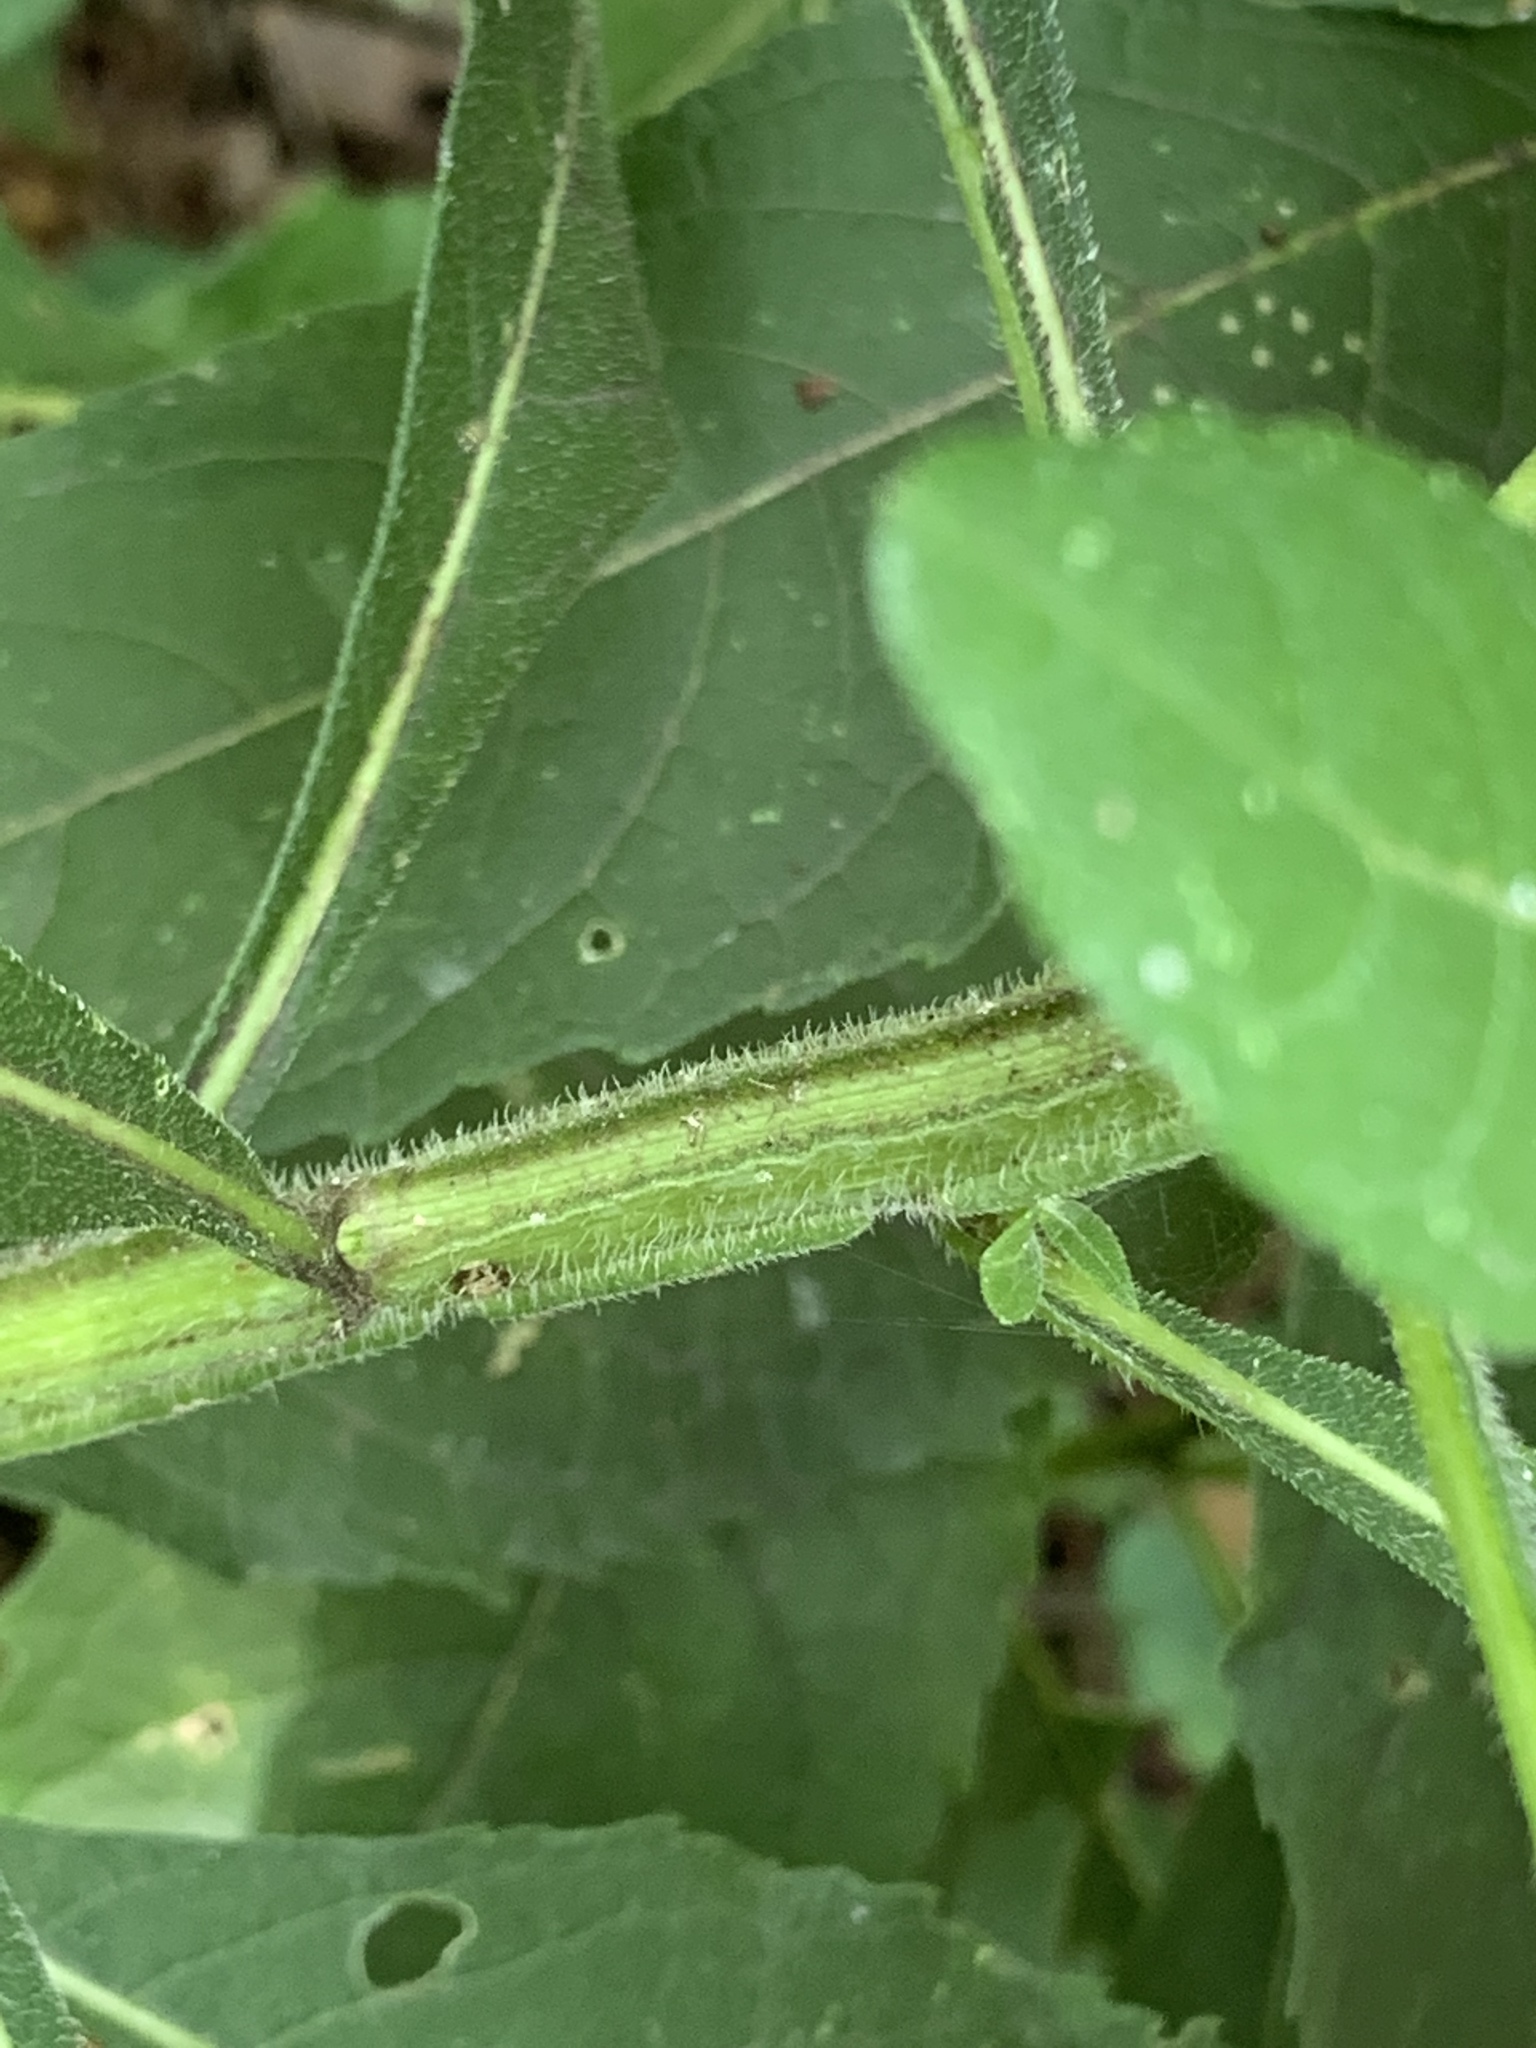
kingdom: Plantae
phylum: Tracheophyta
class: Magnoliopsida
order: Asterales
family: Asteraceae
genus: Verbesina
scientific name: Verbesina alternifolia
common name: Wingstem
